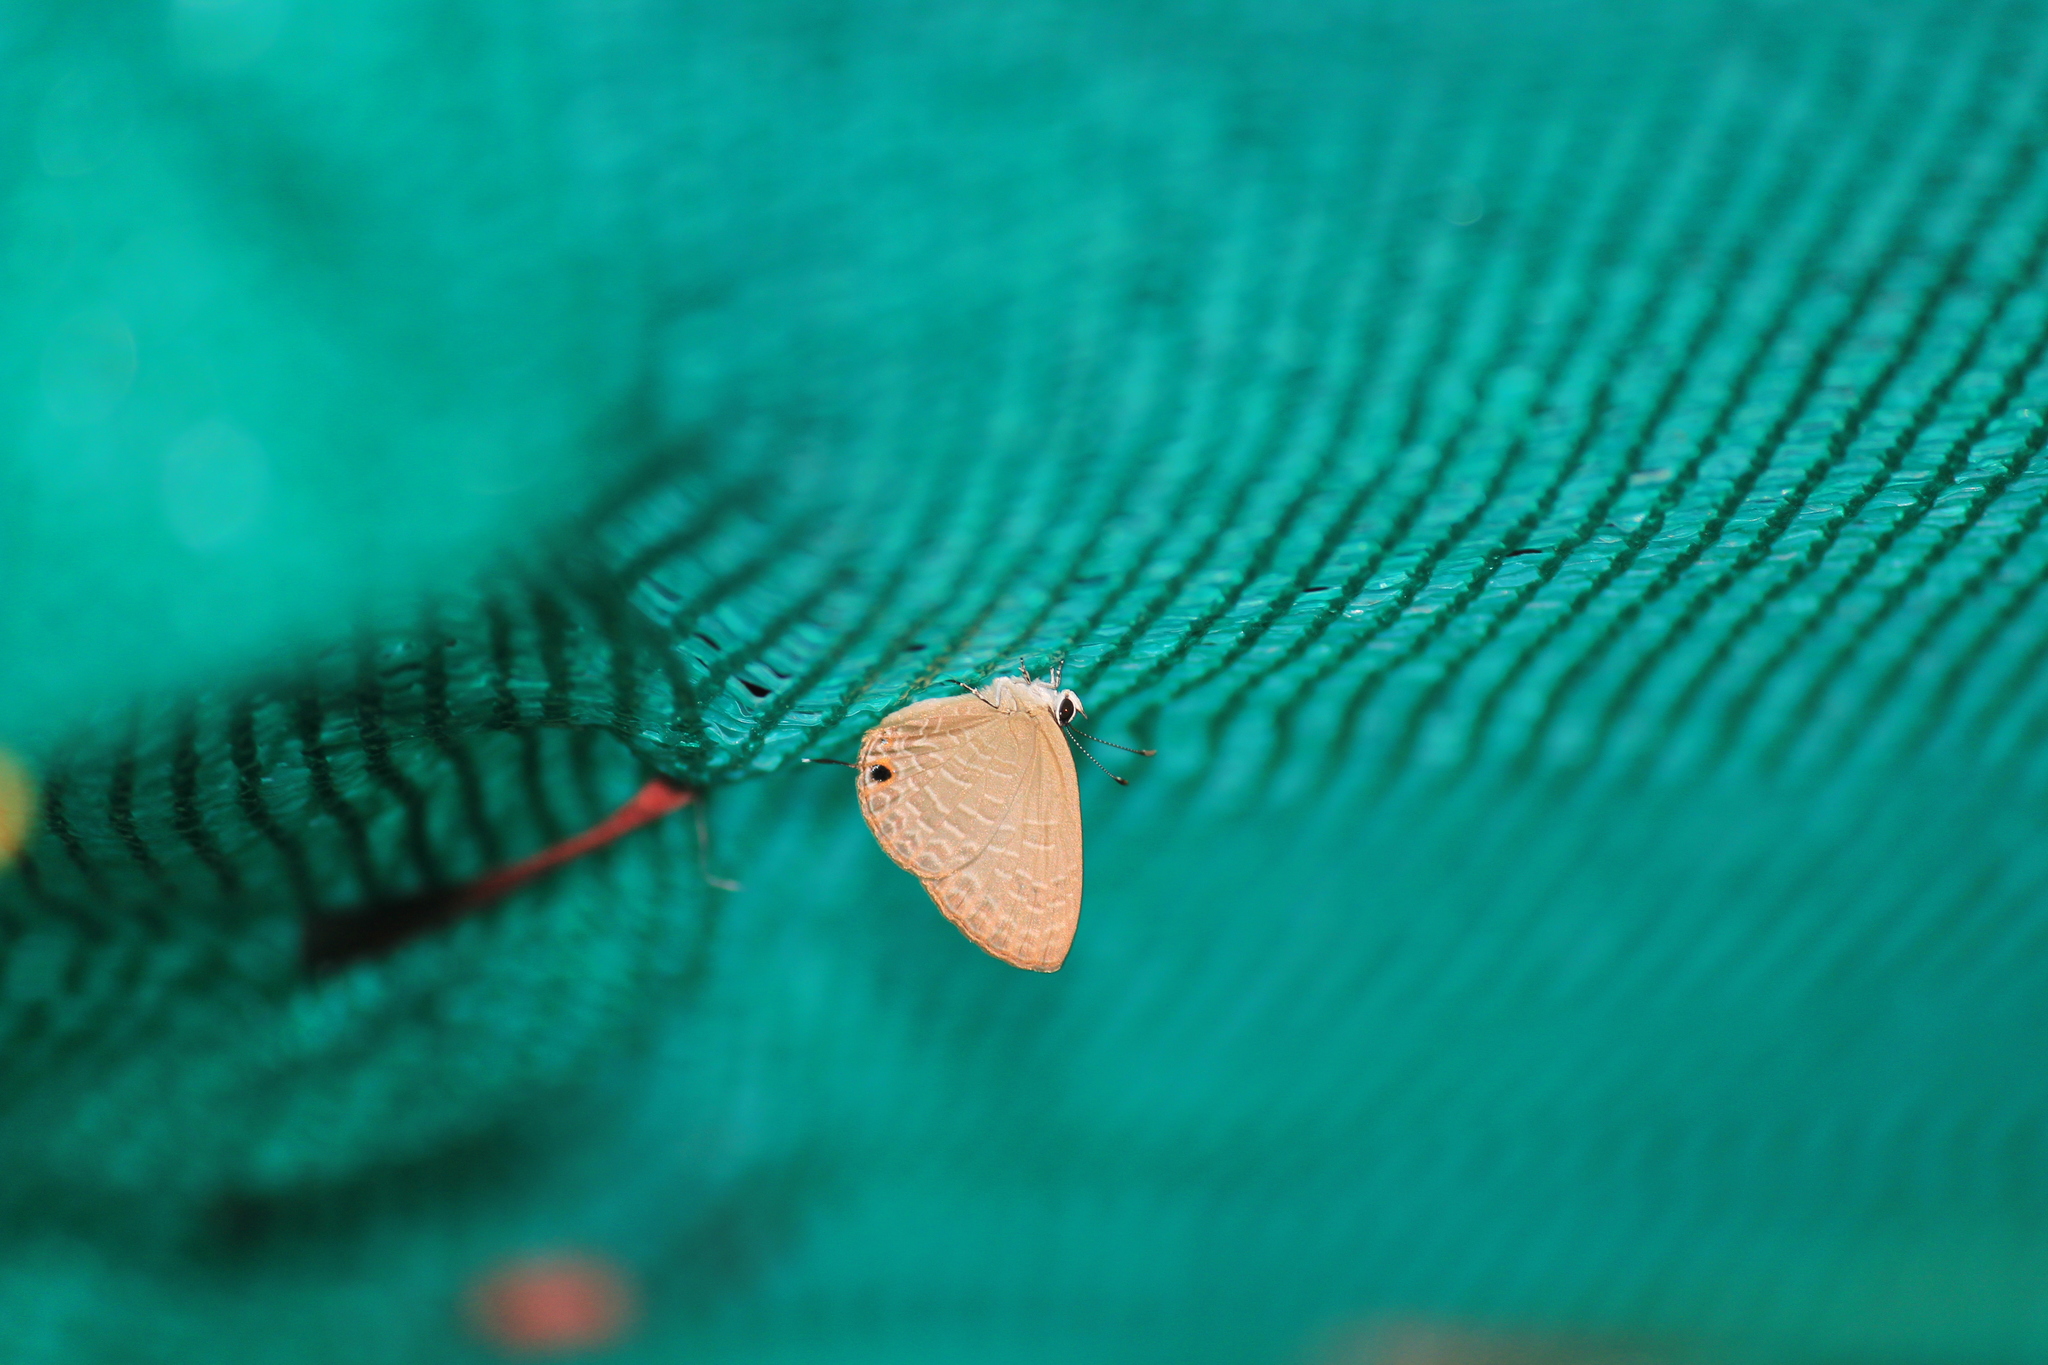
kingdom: Animalia
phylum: Arthropoda
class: Insecta
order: Lepidoptera
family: Lycaenidae
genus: Jamides
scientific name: Jamides bochus
